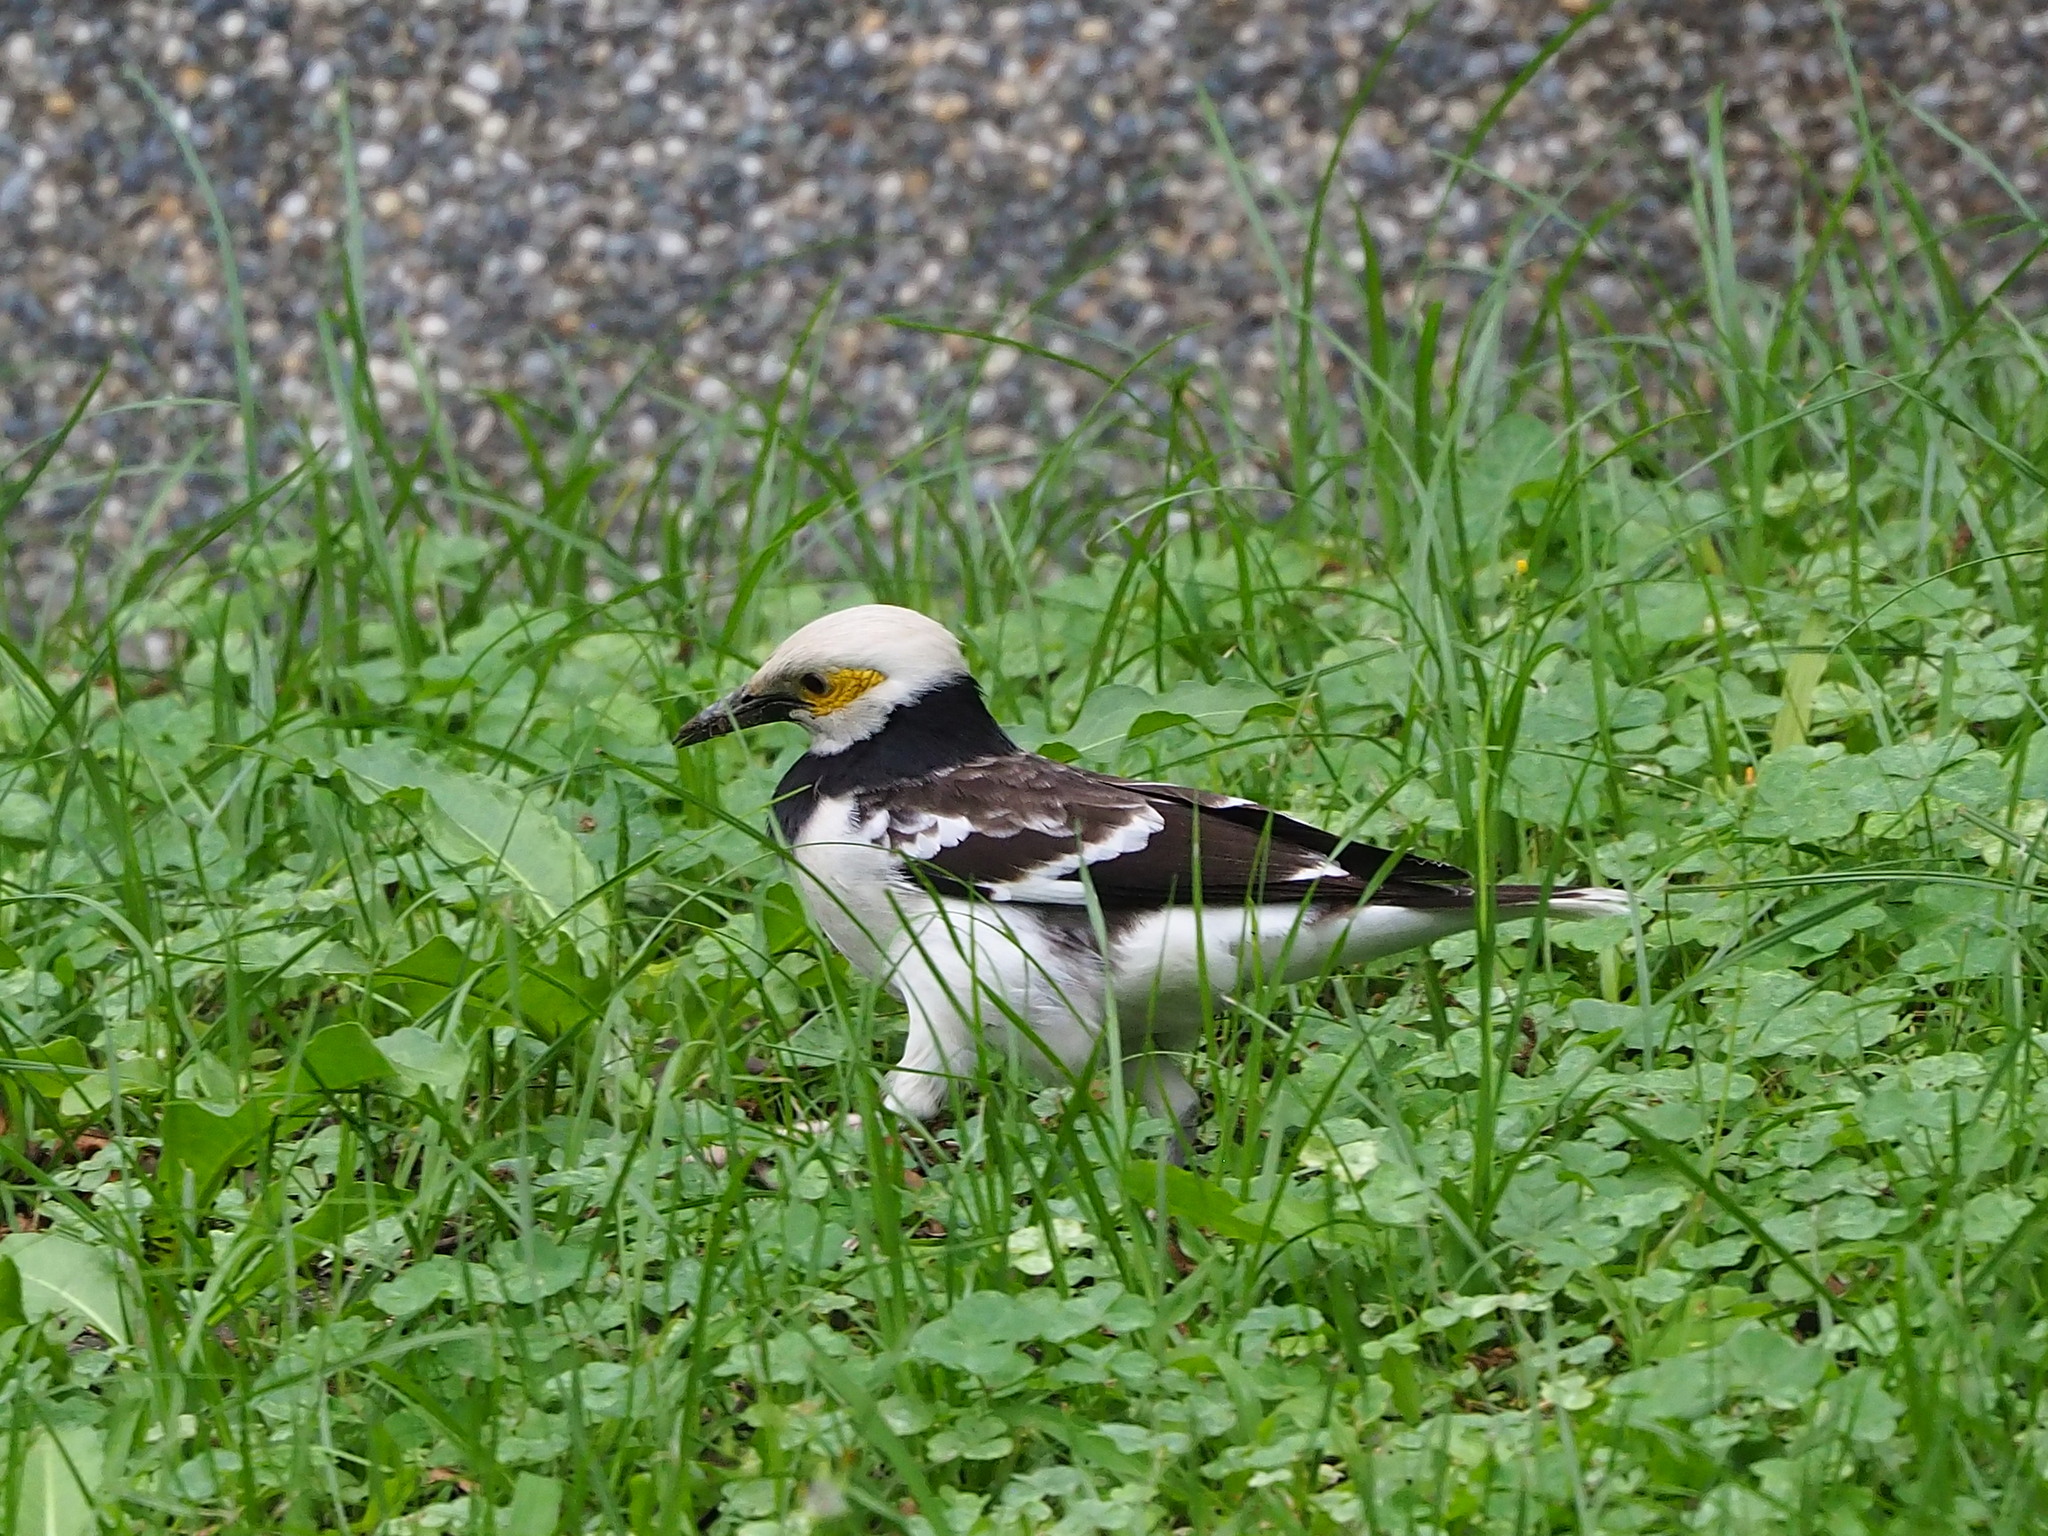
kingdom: Animalia
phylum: Chordata
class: Aves
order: Passeriformes
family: Sturnidae
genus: Gracupica
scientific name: Gracupica nigricollis
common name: Black-collared starling
